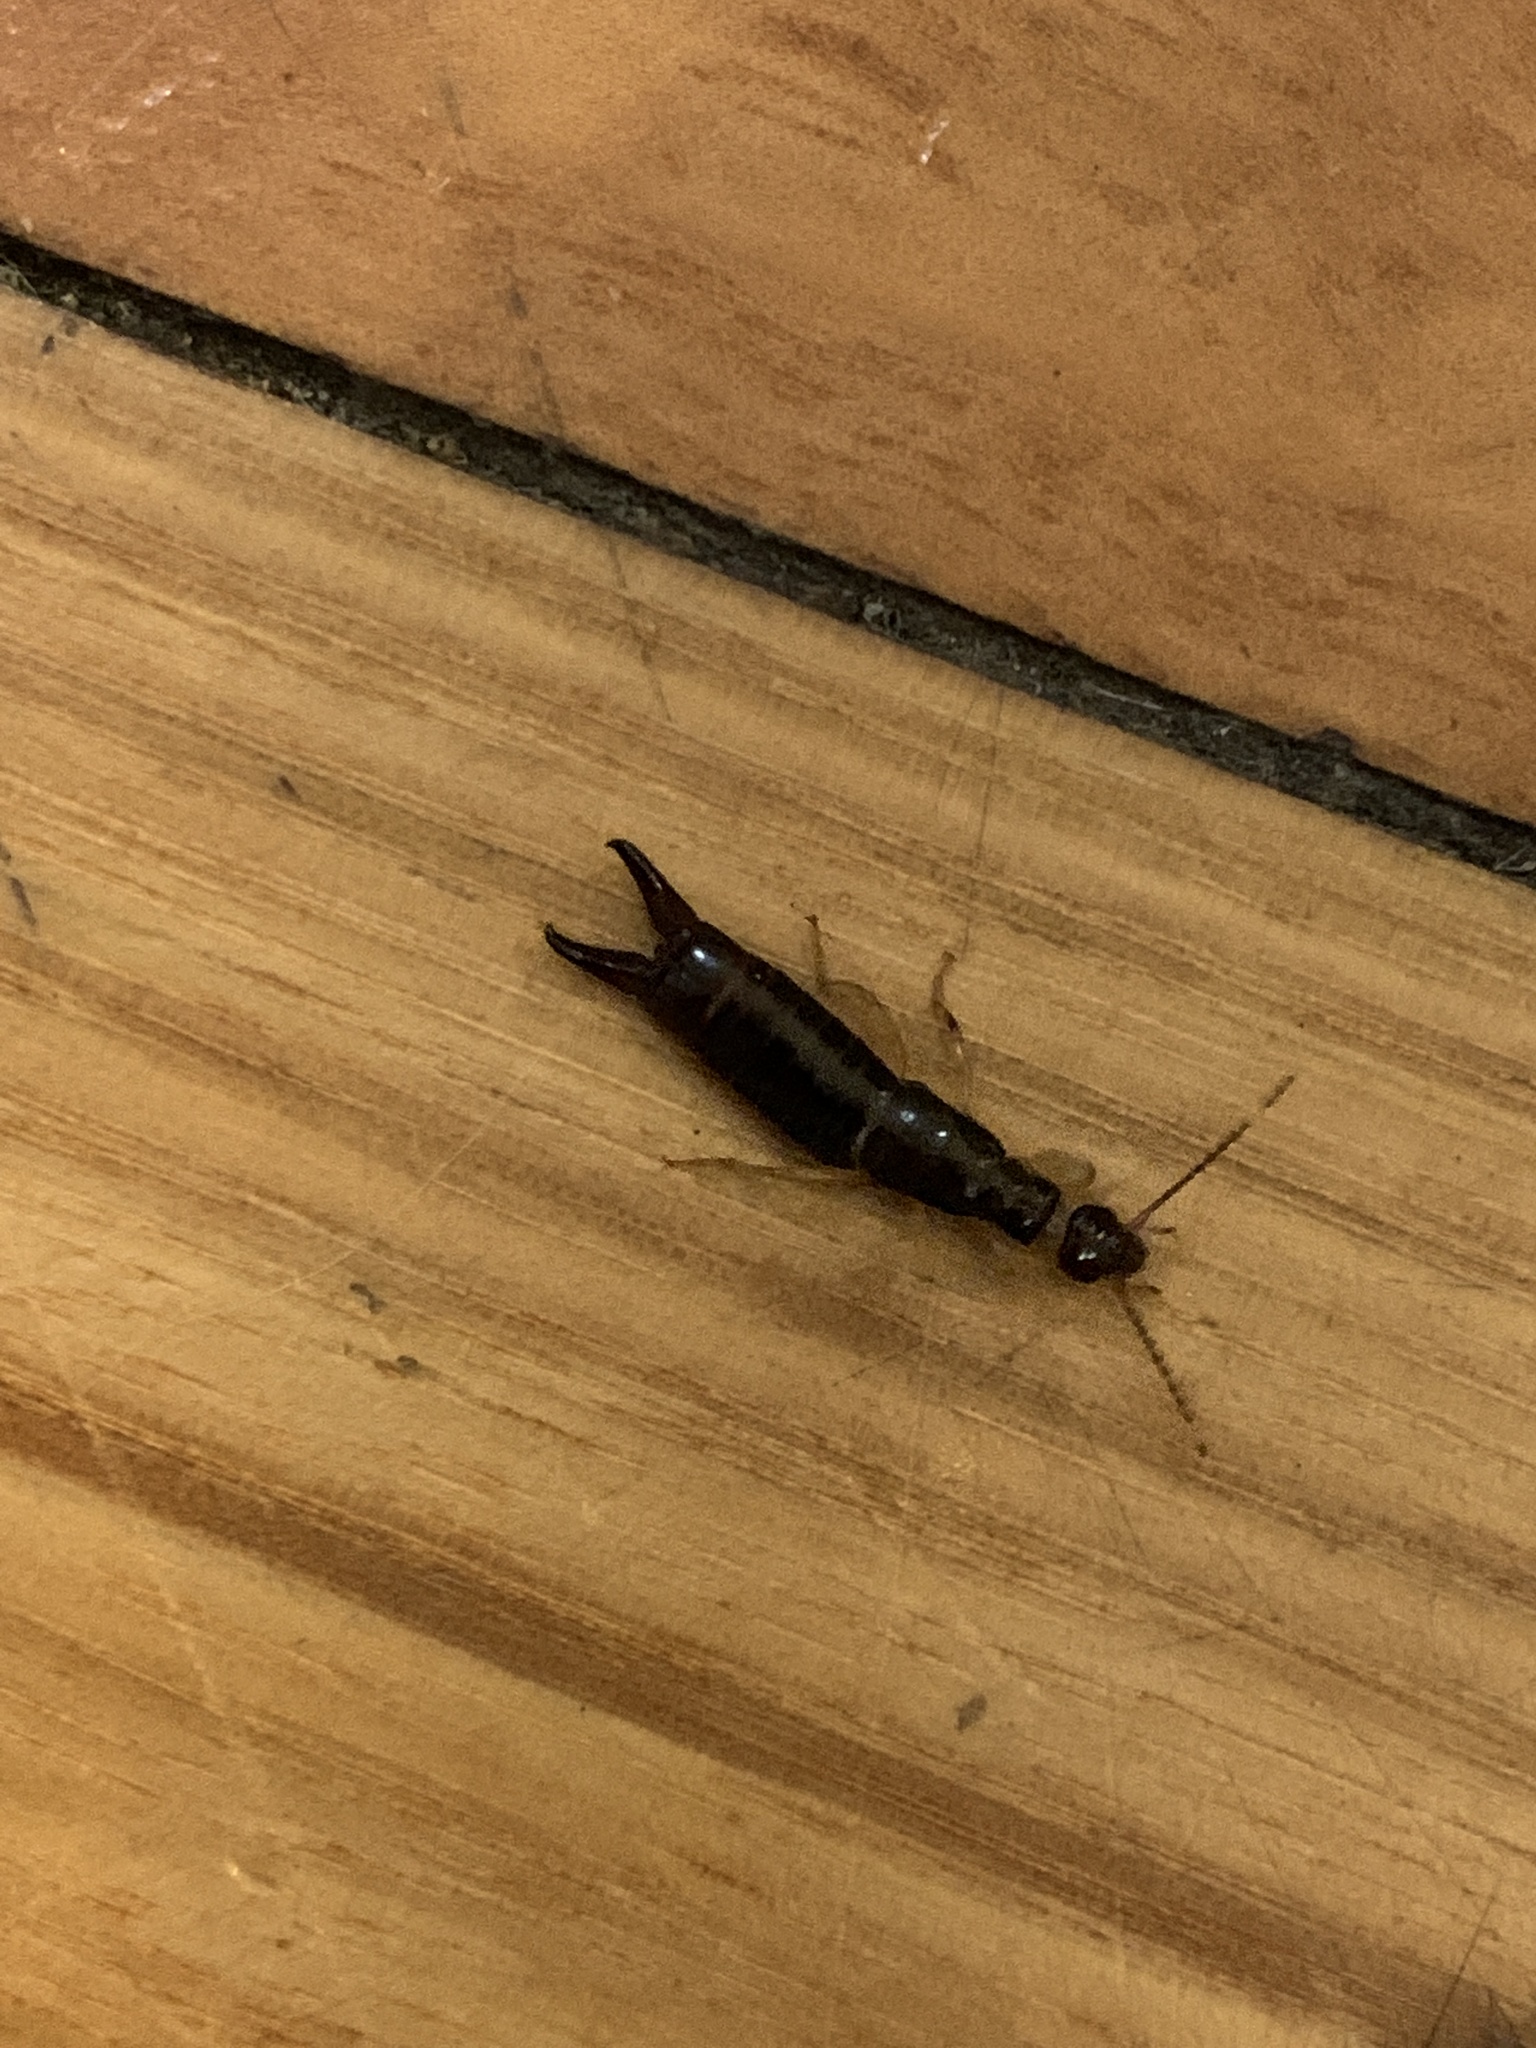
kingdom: Animalia
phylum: Arthropoda
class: Insecta
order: Dermaptera
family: Anisolabididae
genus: Euborellia
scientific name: Euborellia annulipes
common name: Ringlegged earwig
